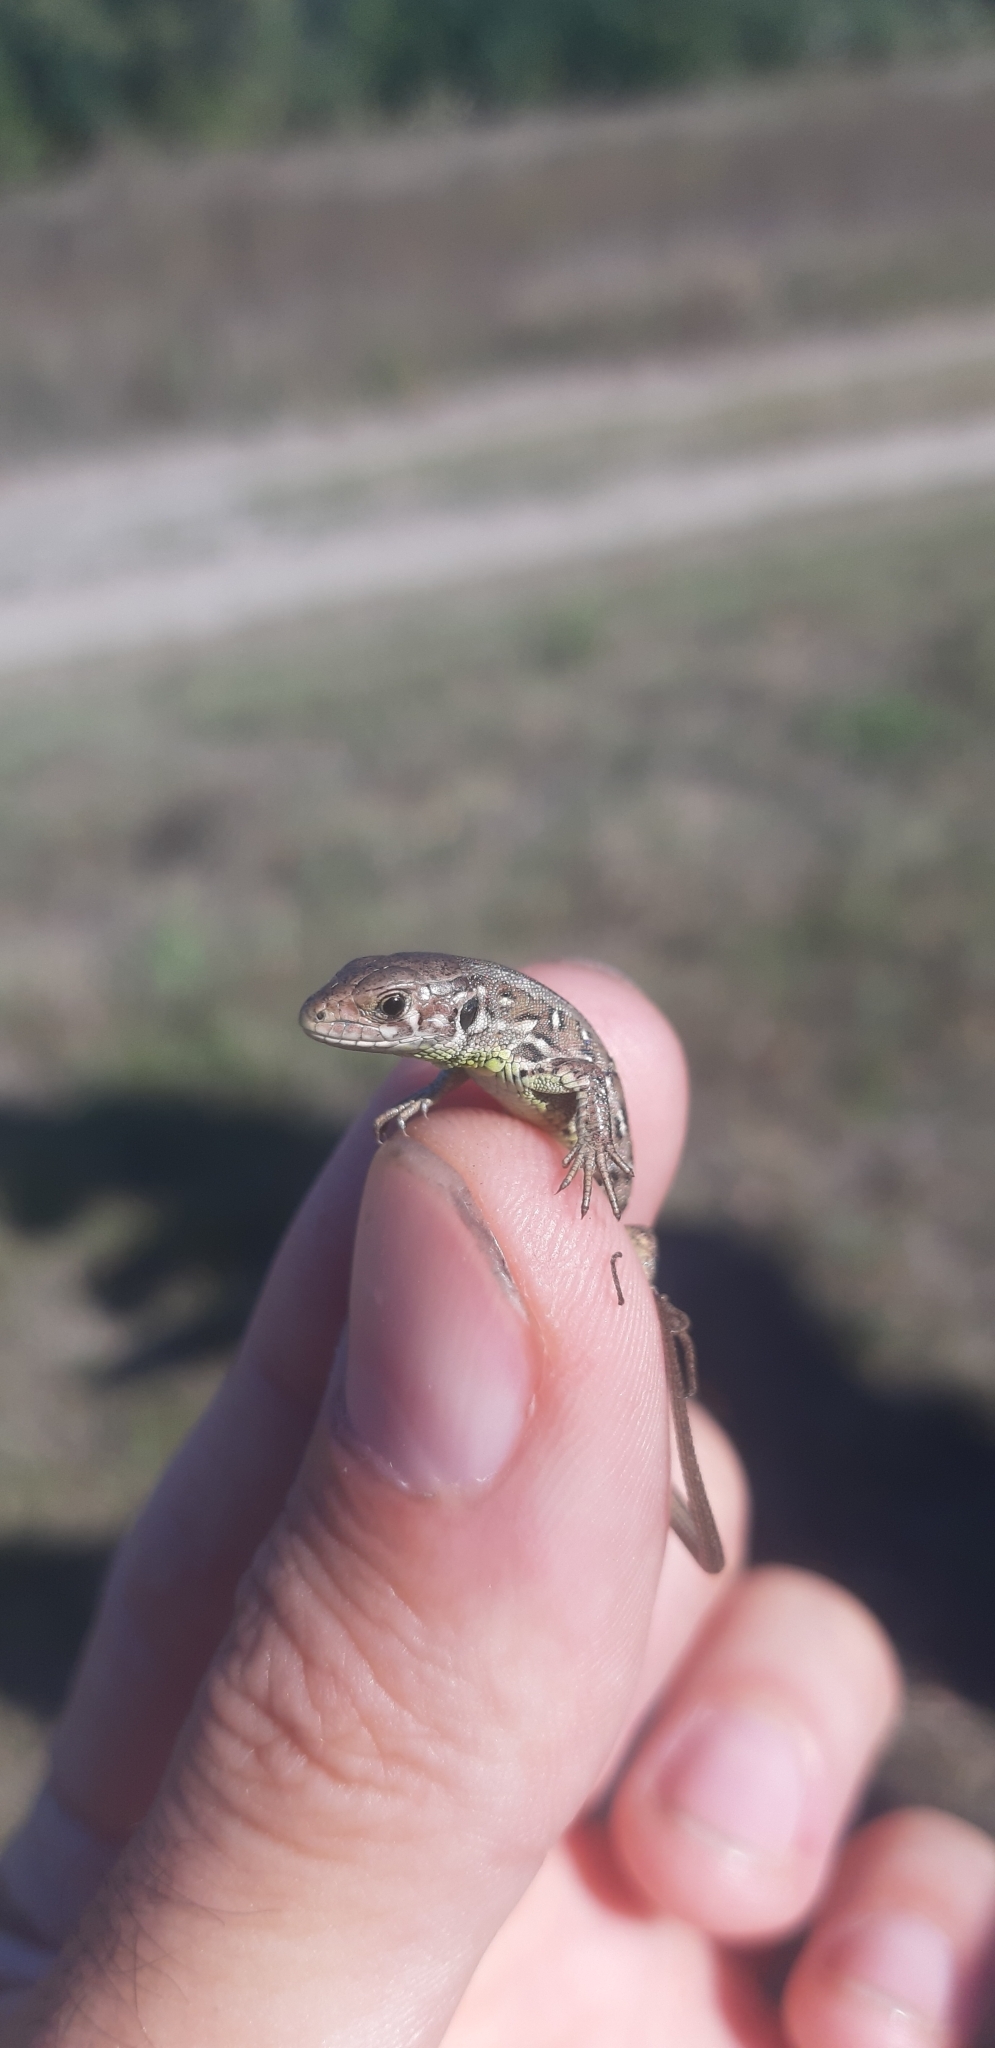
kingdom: Animalia
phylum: Chordata
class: Squamata
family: Lacertidae
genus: Lacerta
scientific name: Lacerta agilis
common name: Sand lizard
